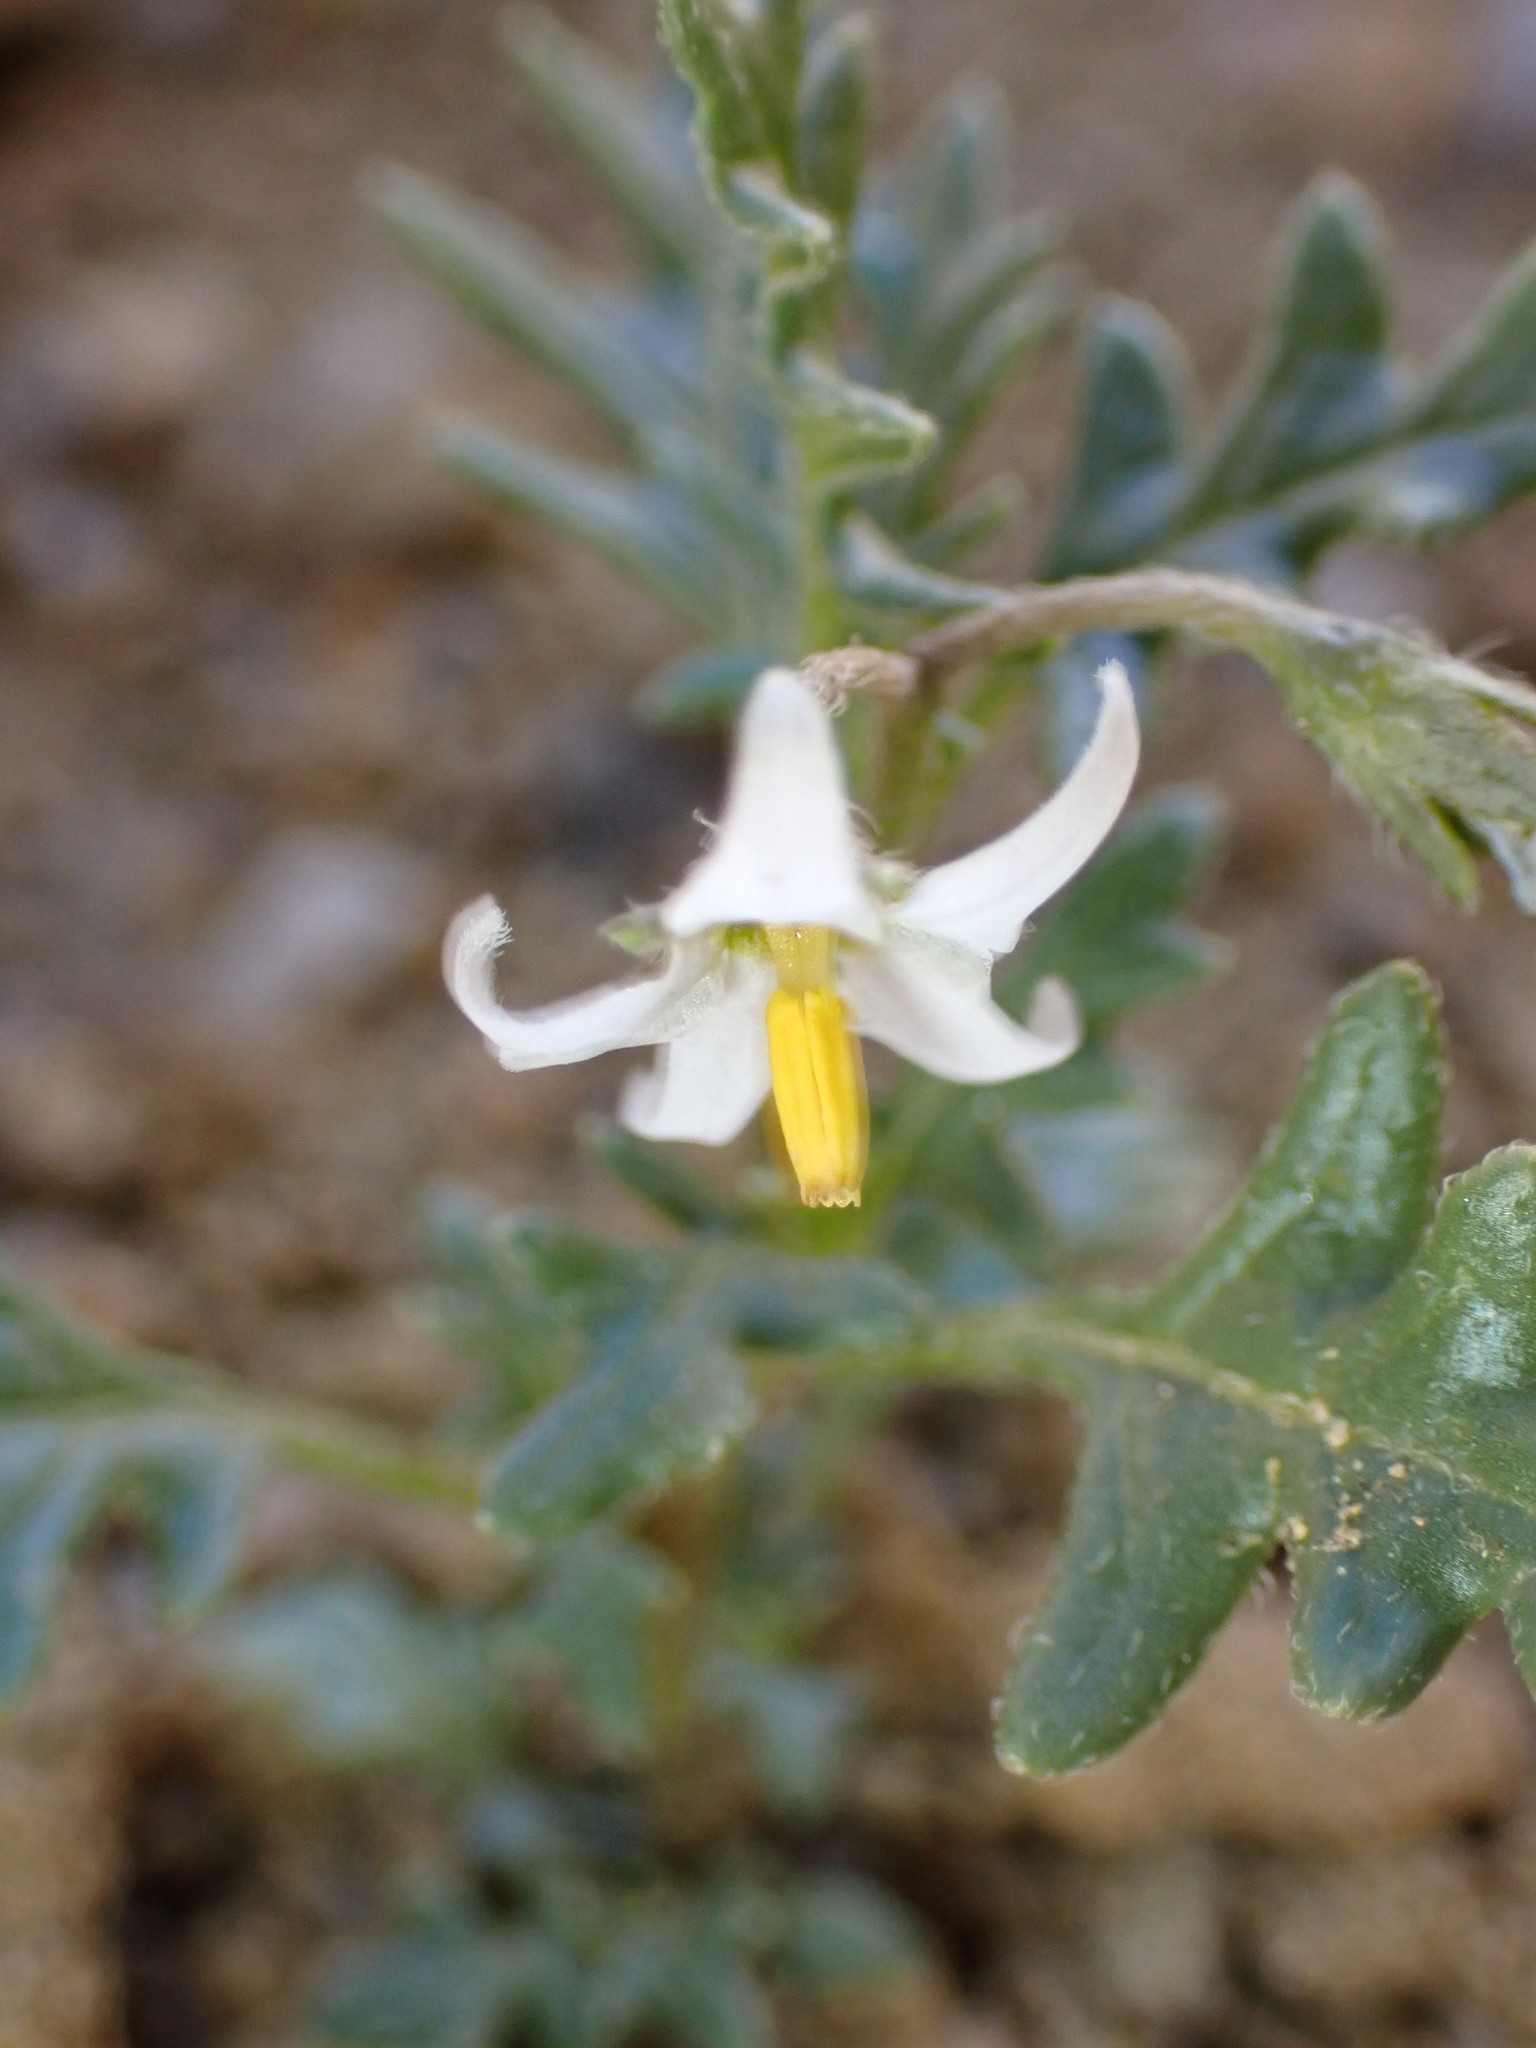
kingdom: Plantae
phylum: Tracheophyta
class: Magnoliopsida
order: Solanales
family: Solanaceae
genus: Solanum
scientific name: Solanum triflorum
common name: Small nightshade
